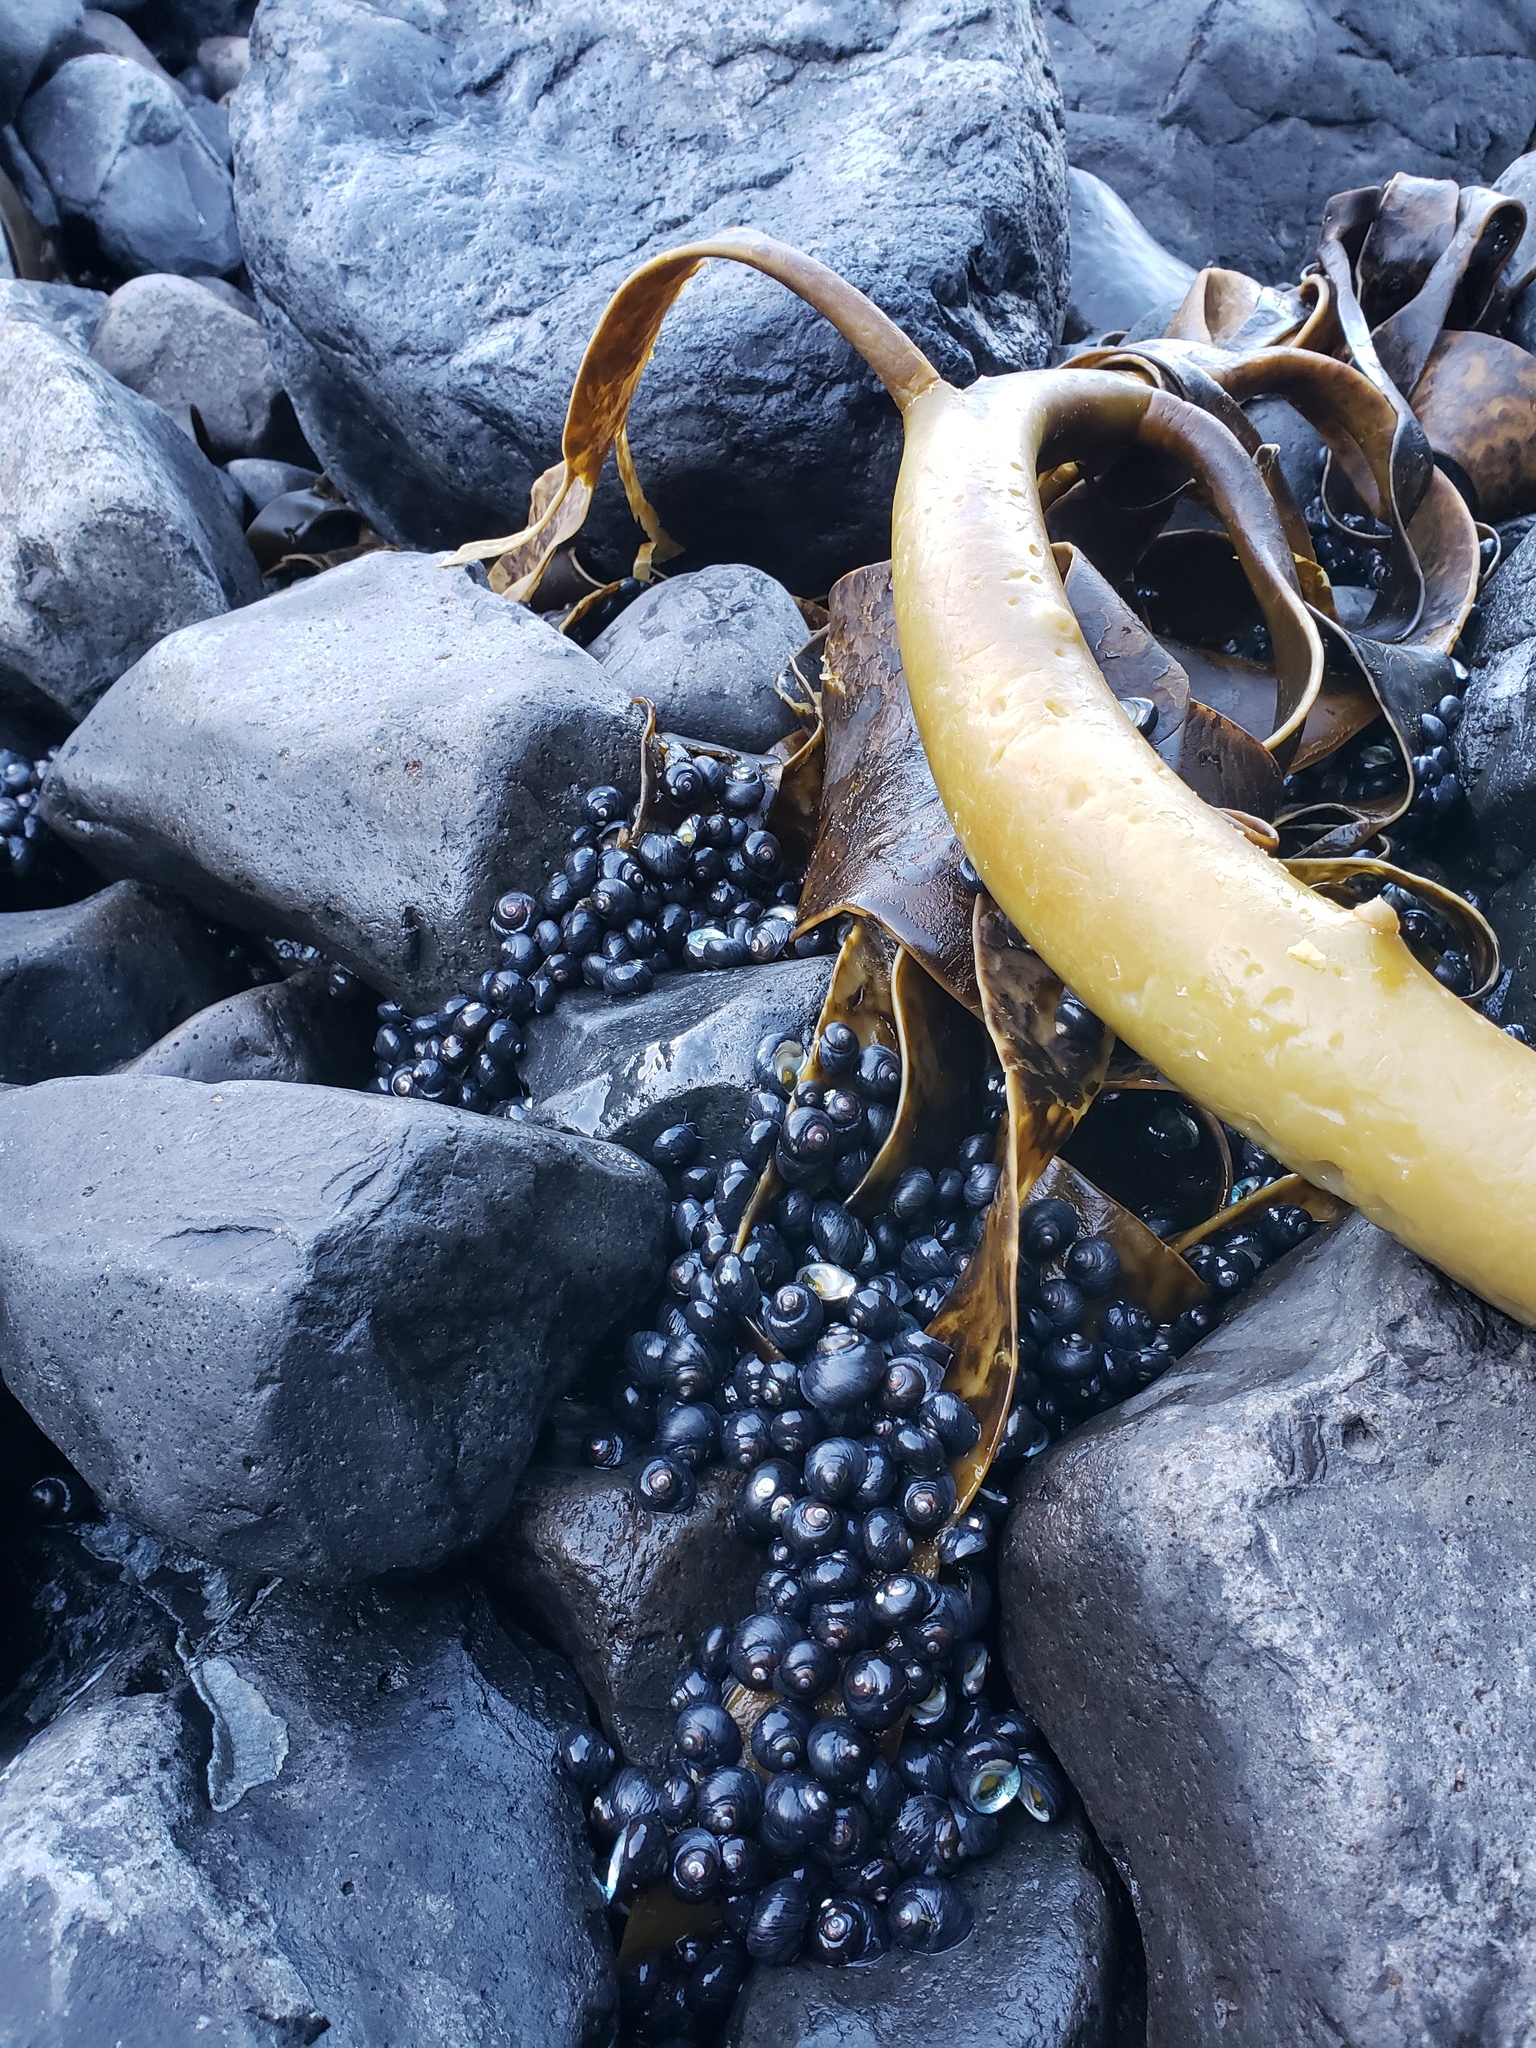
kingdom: Animalia
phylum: Mollusca
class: Gastropoda
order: Trochida
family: Trochidae
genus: Diloma
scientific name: Diloma nigerrimum
